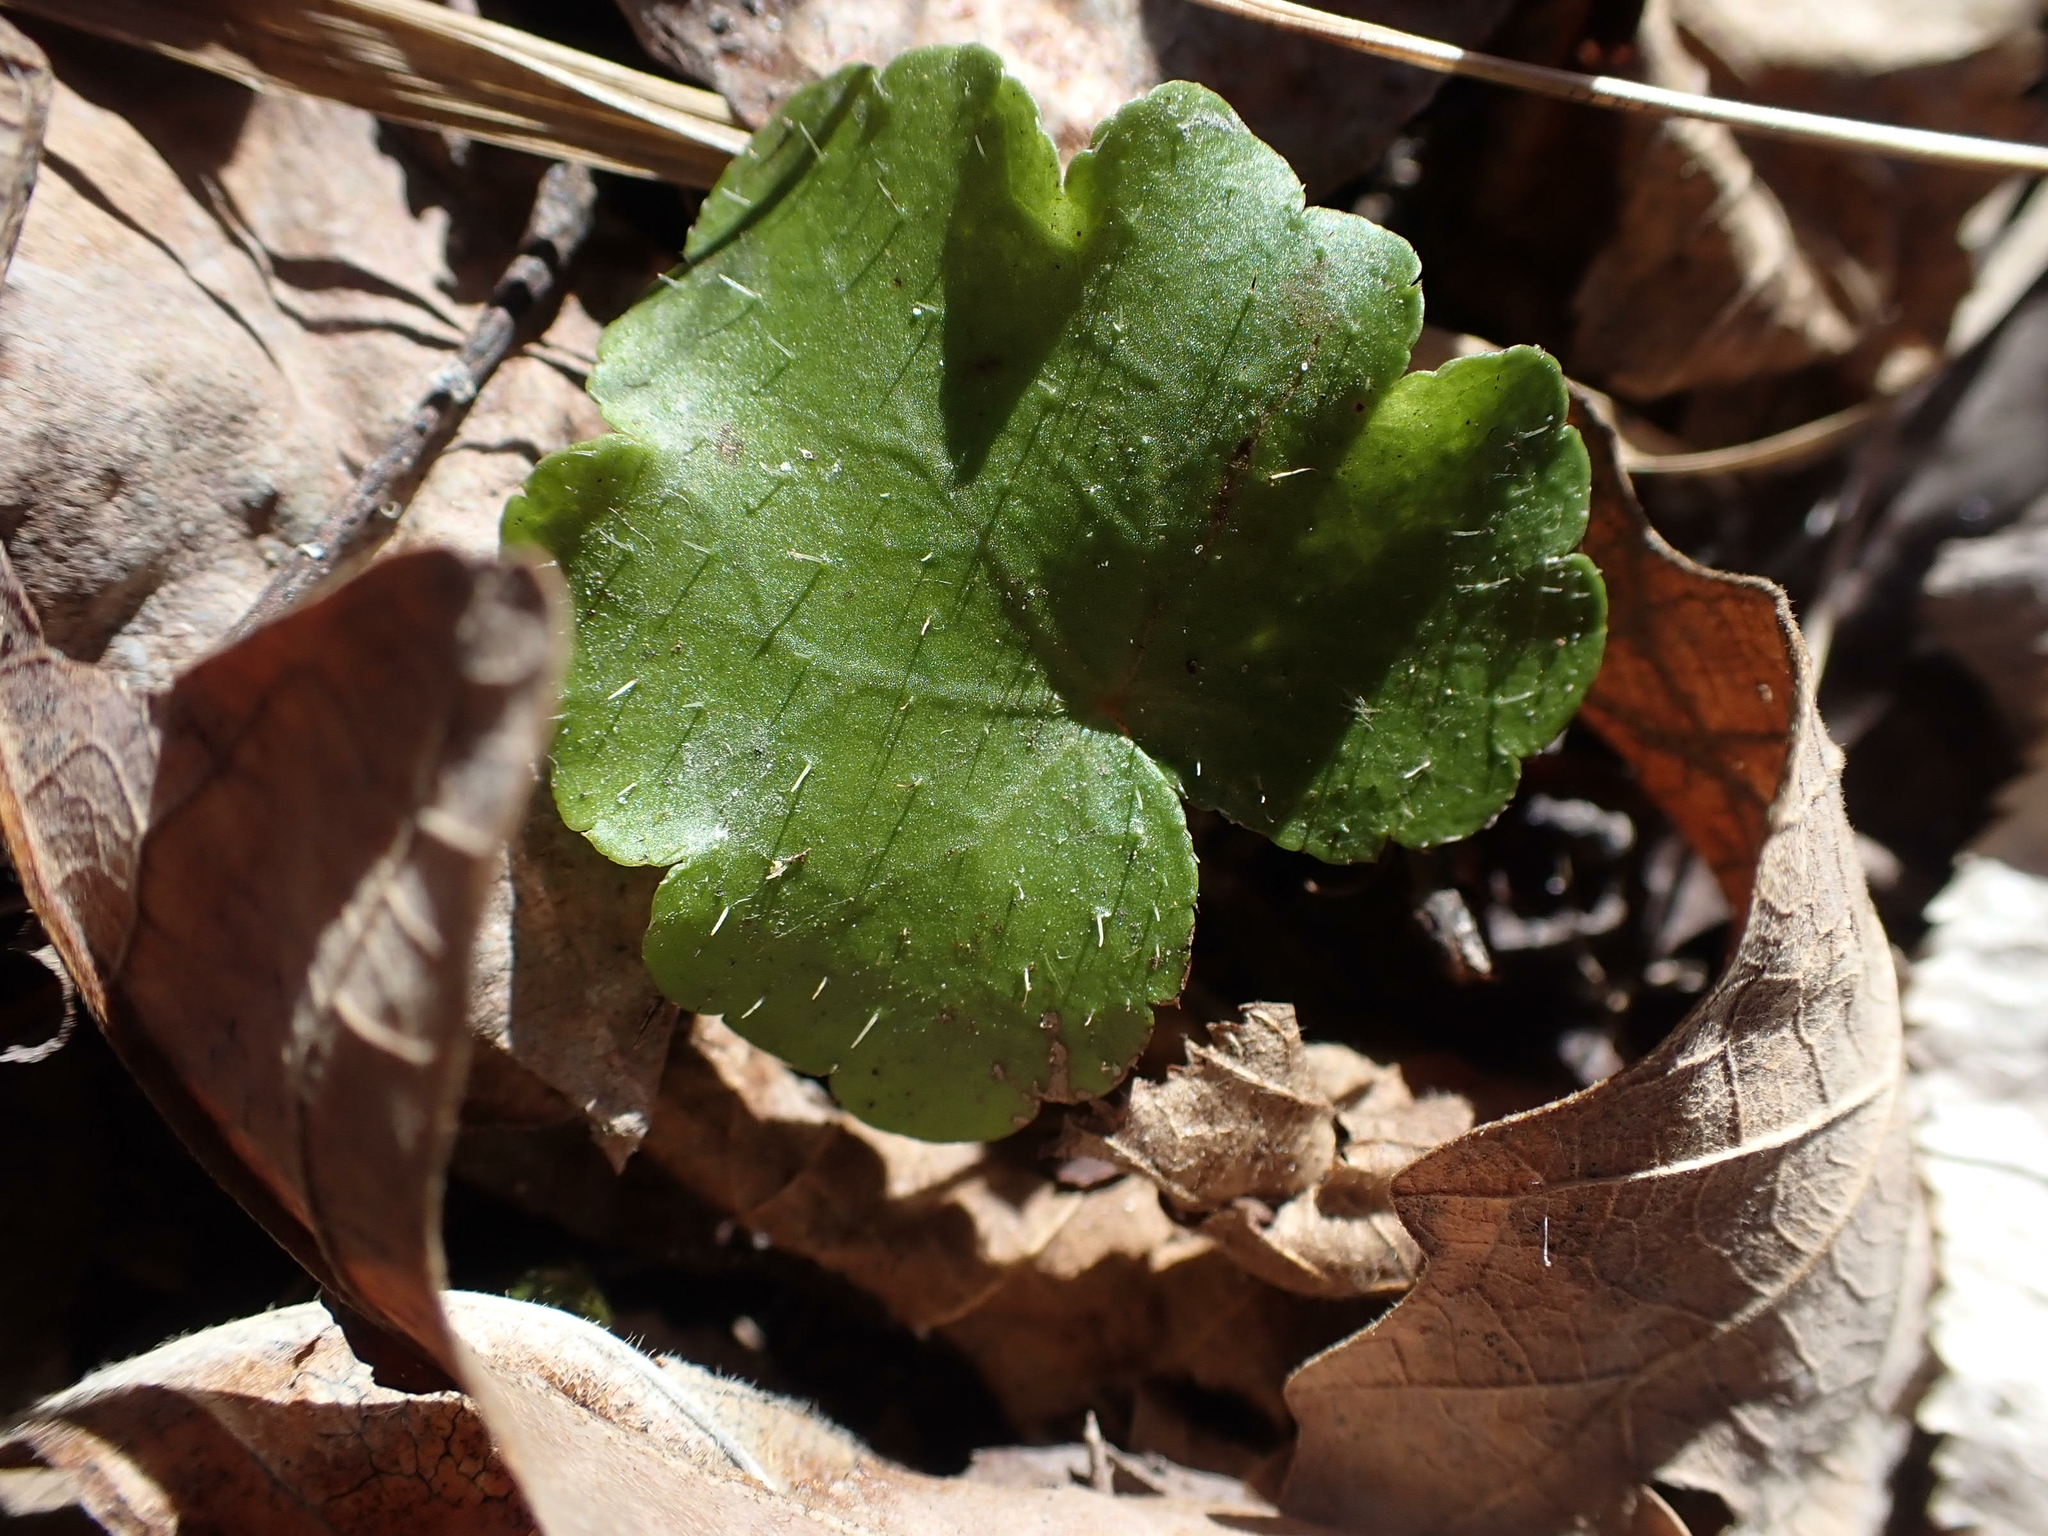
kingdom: Plantae
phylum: Tracheophyta
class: Magnoliopsida
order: Saxifragales
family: Saxifragaceae
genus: Mitella
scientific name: Mitella nuda
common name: Bare-stemmed bishop's-cap
